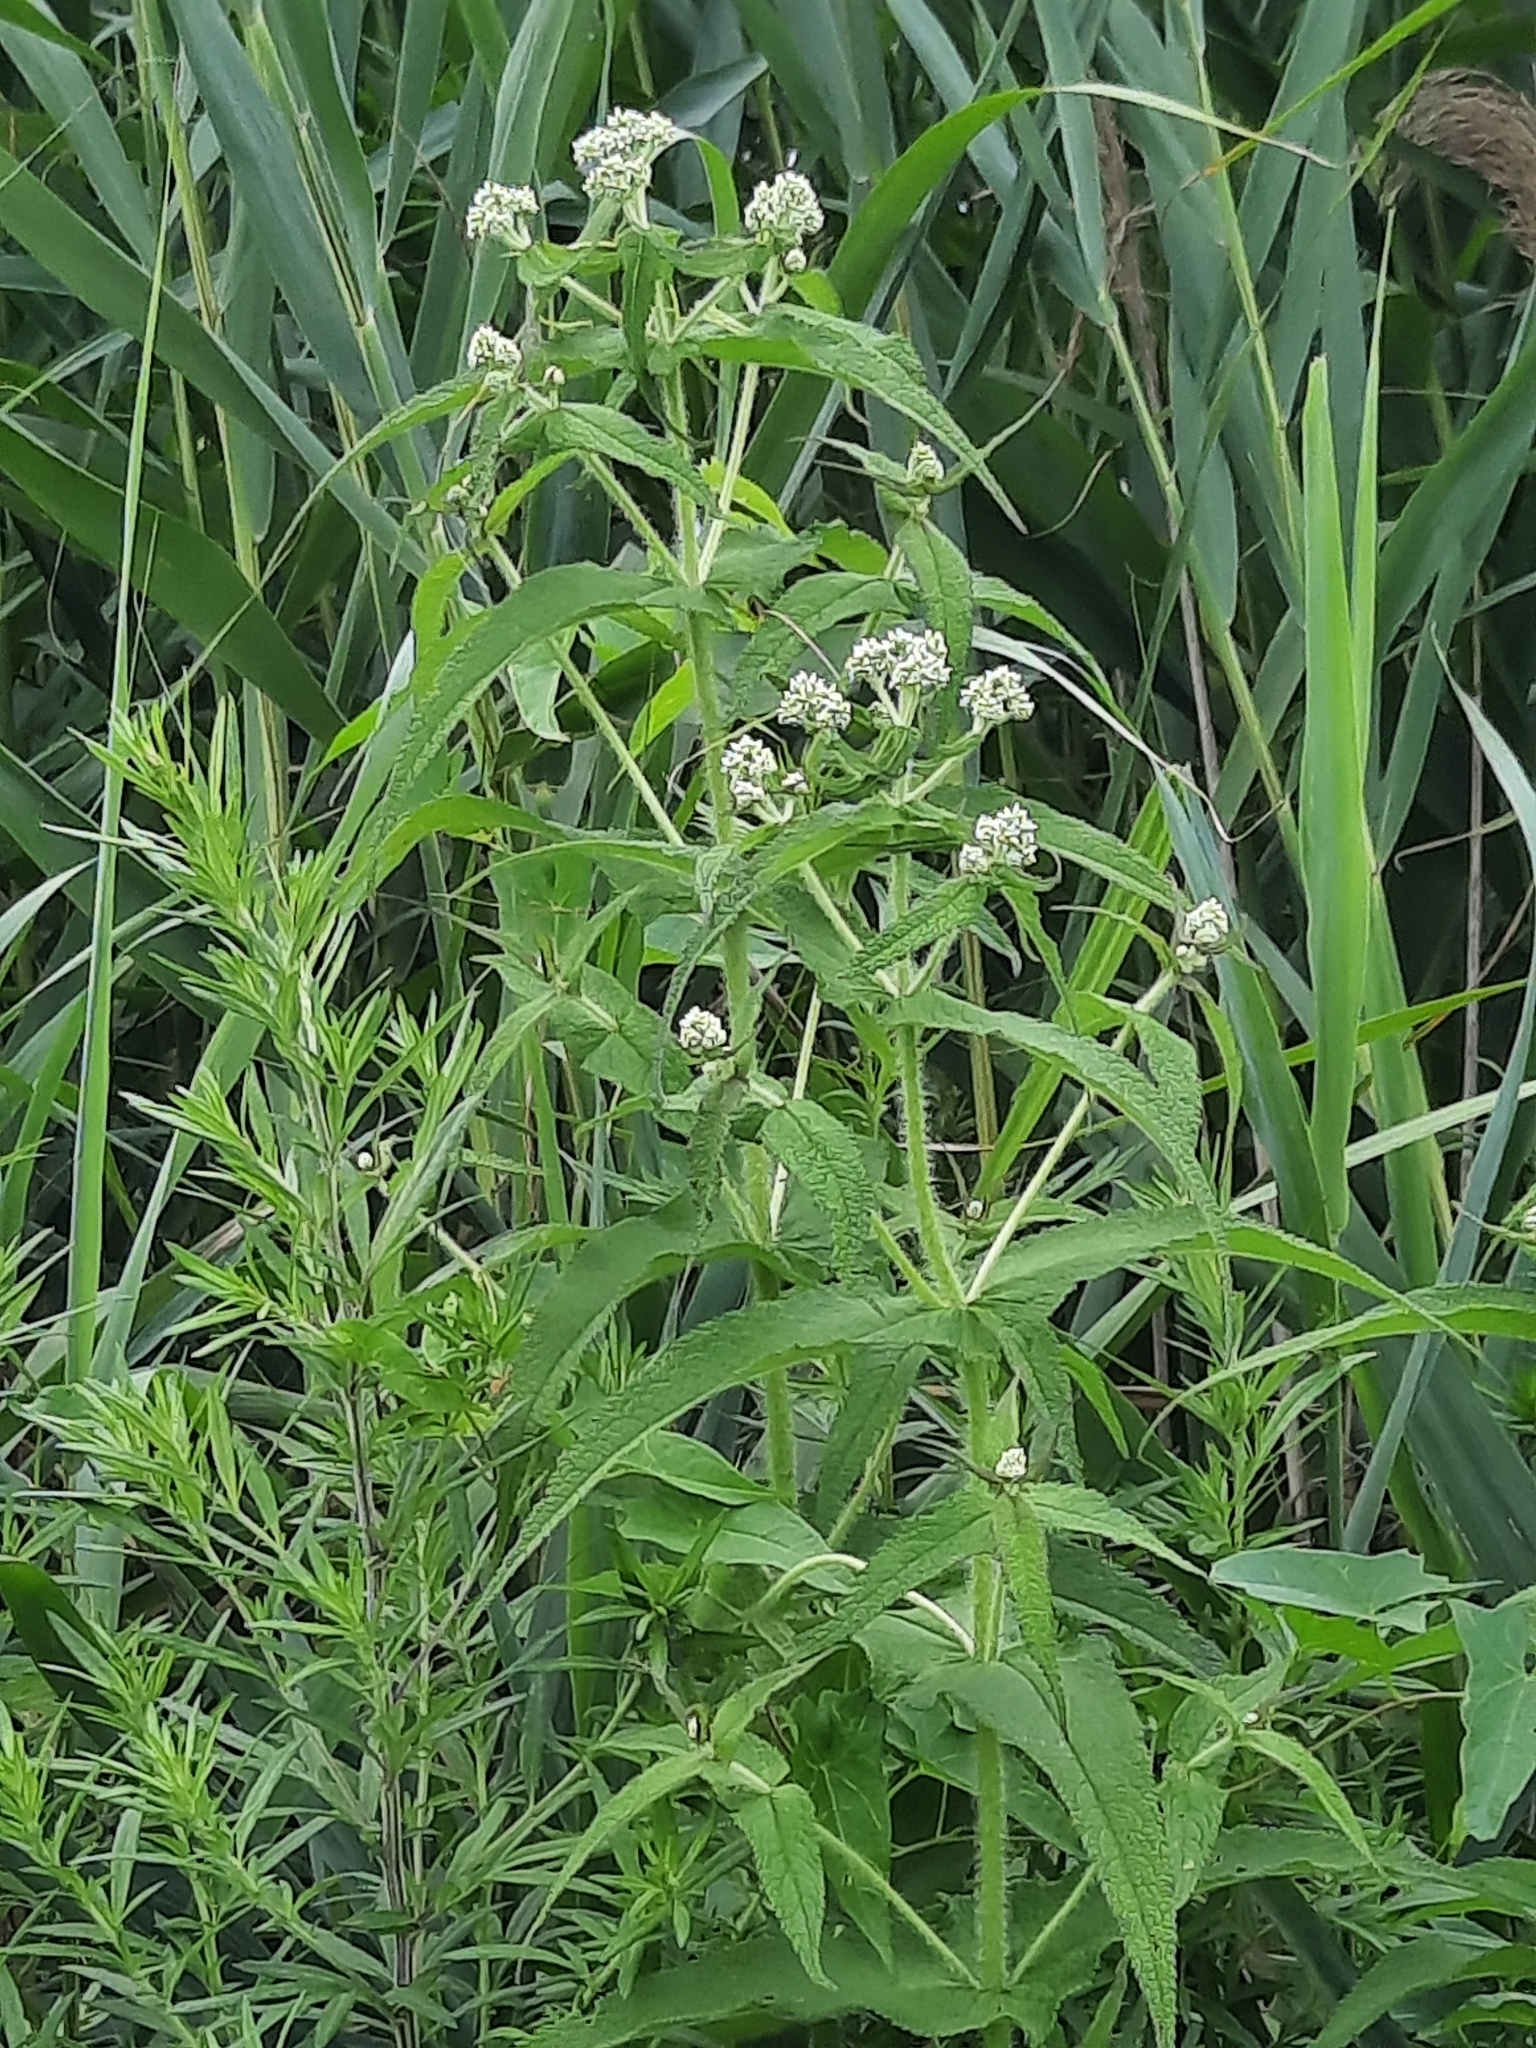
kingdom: Plantae
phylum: Tracheophyta
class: Magnoliopsida
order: Asterales
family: Asteraceae
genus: Eupatorium
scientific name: Eupatorium perfoliatum
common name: Boneset
